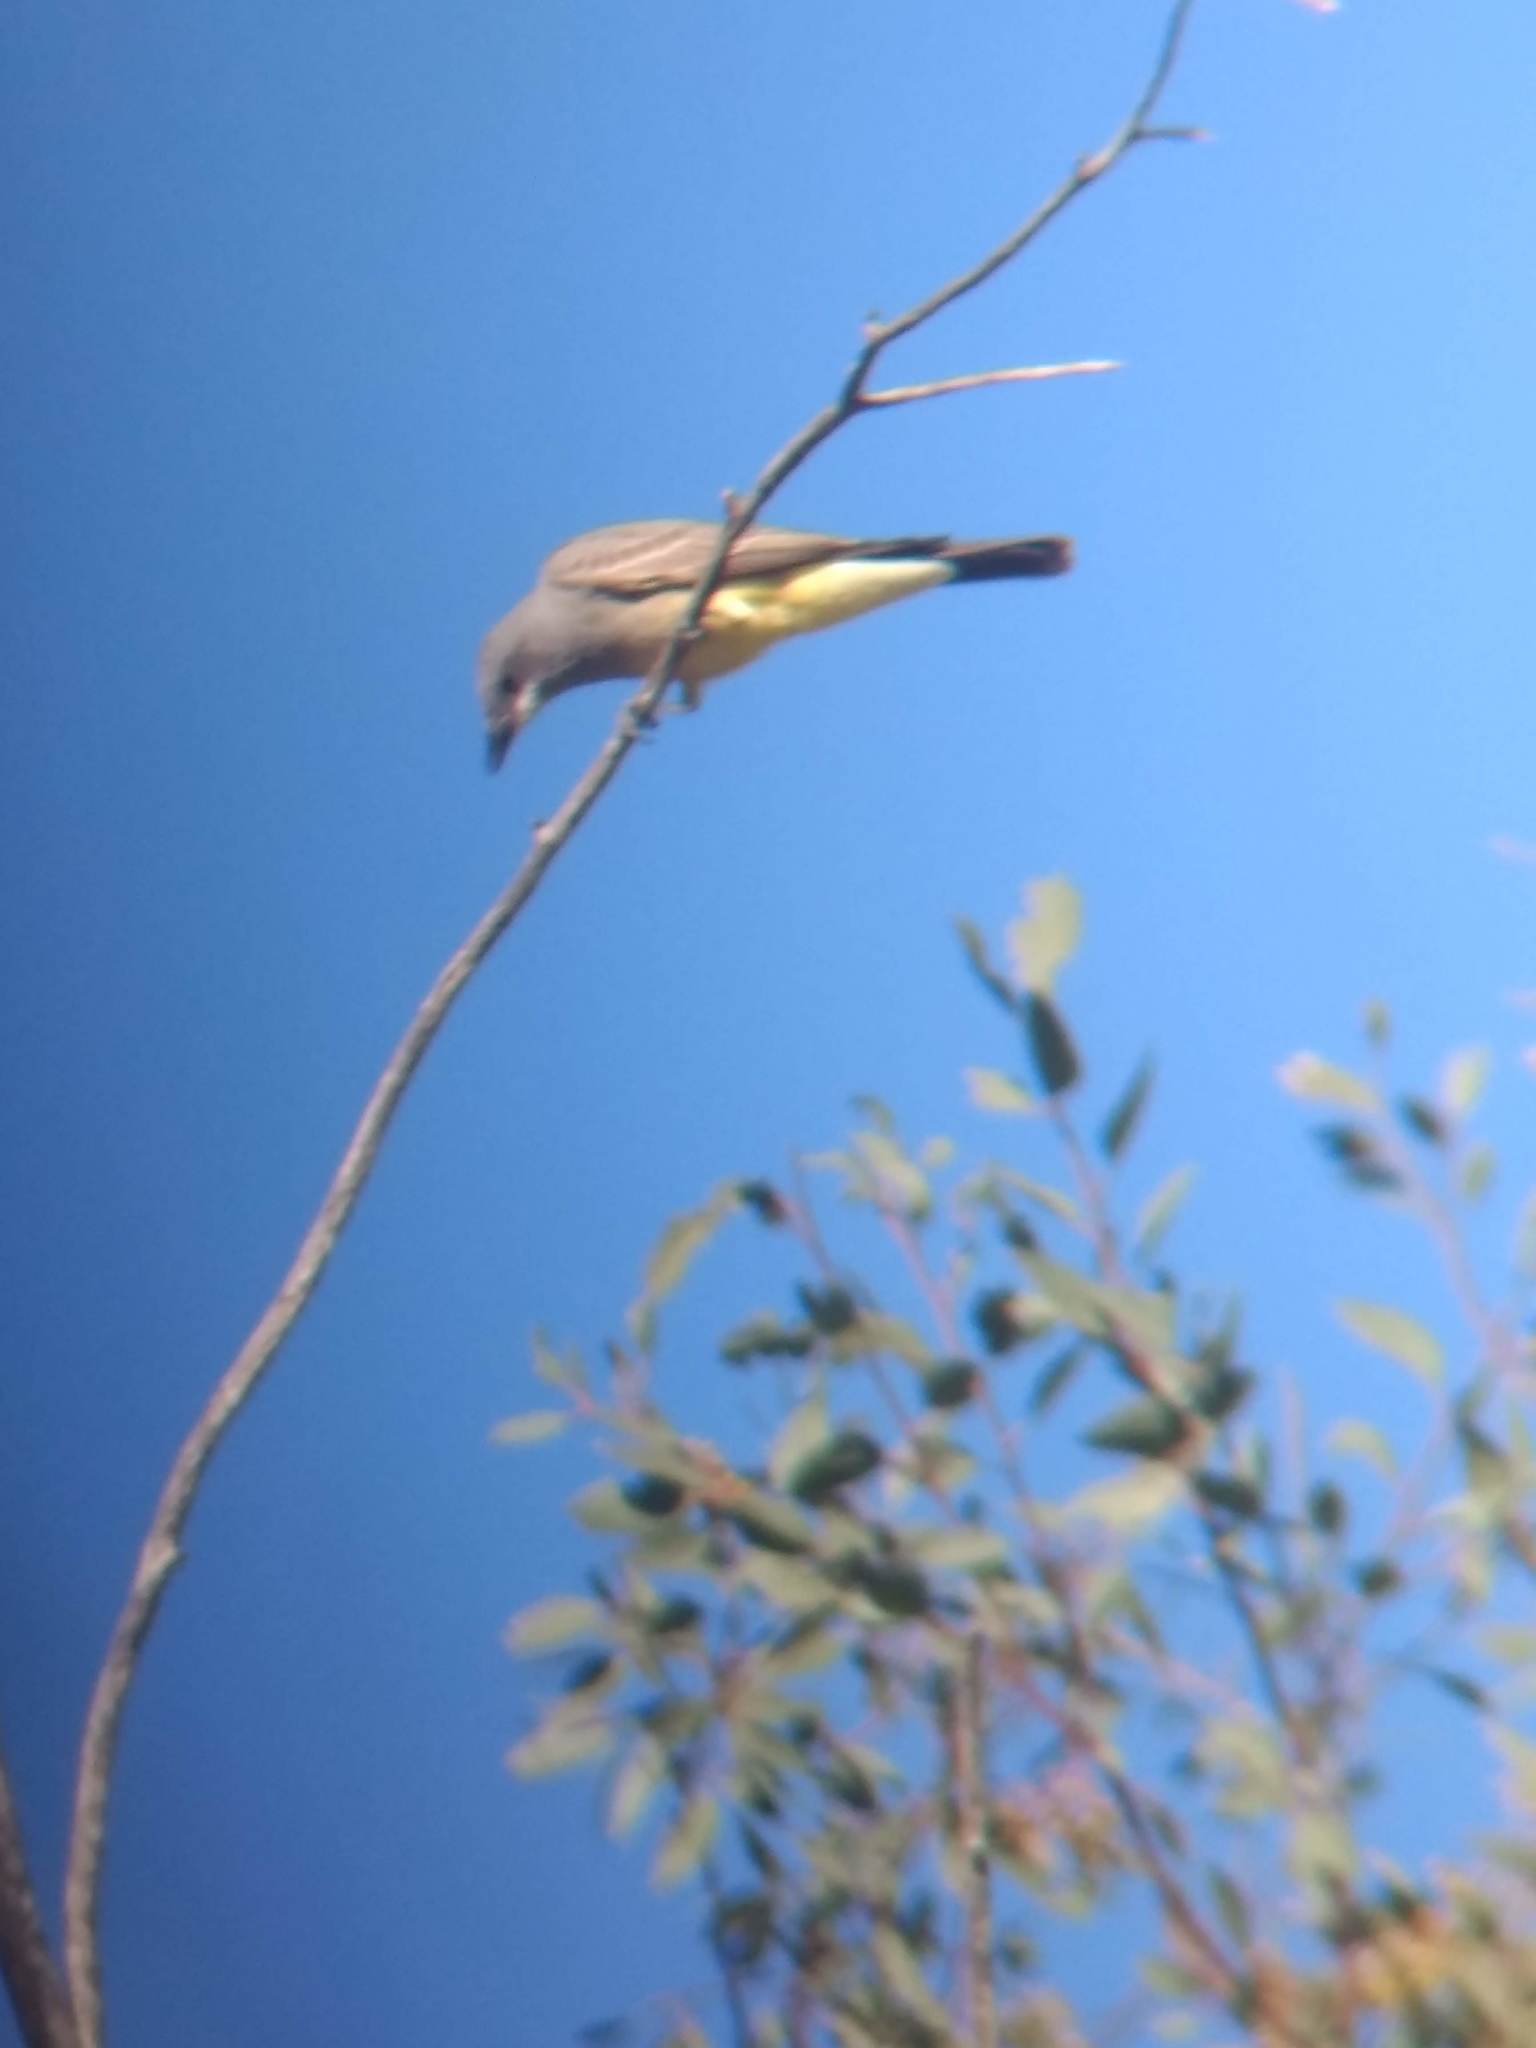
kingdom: Animalia
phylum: Chordata
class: Aves
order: Passeriformes
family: Tyrannidae
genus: Tyrannus
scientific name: Tyrannus vociferans
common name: Cassin's kingbird
